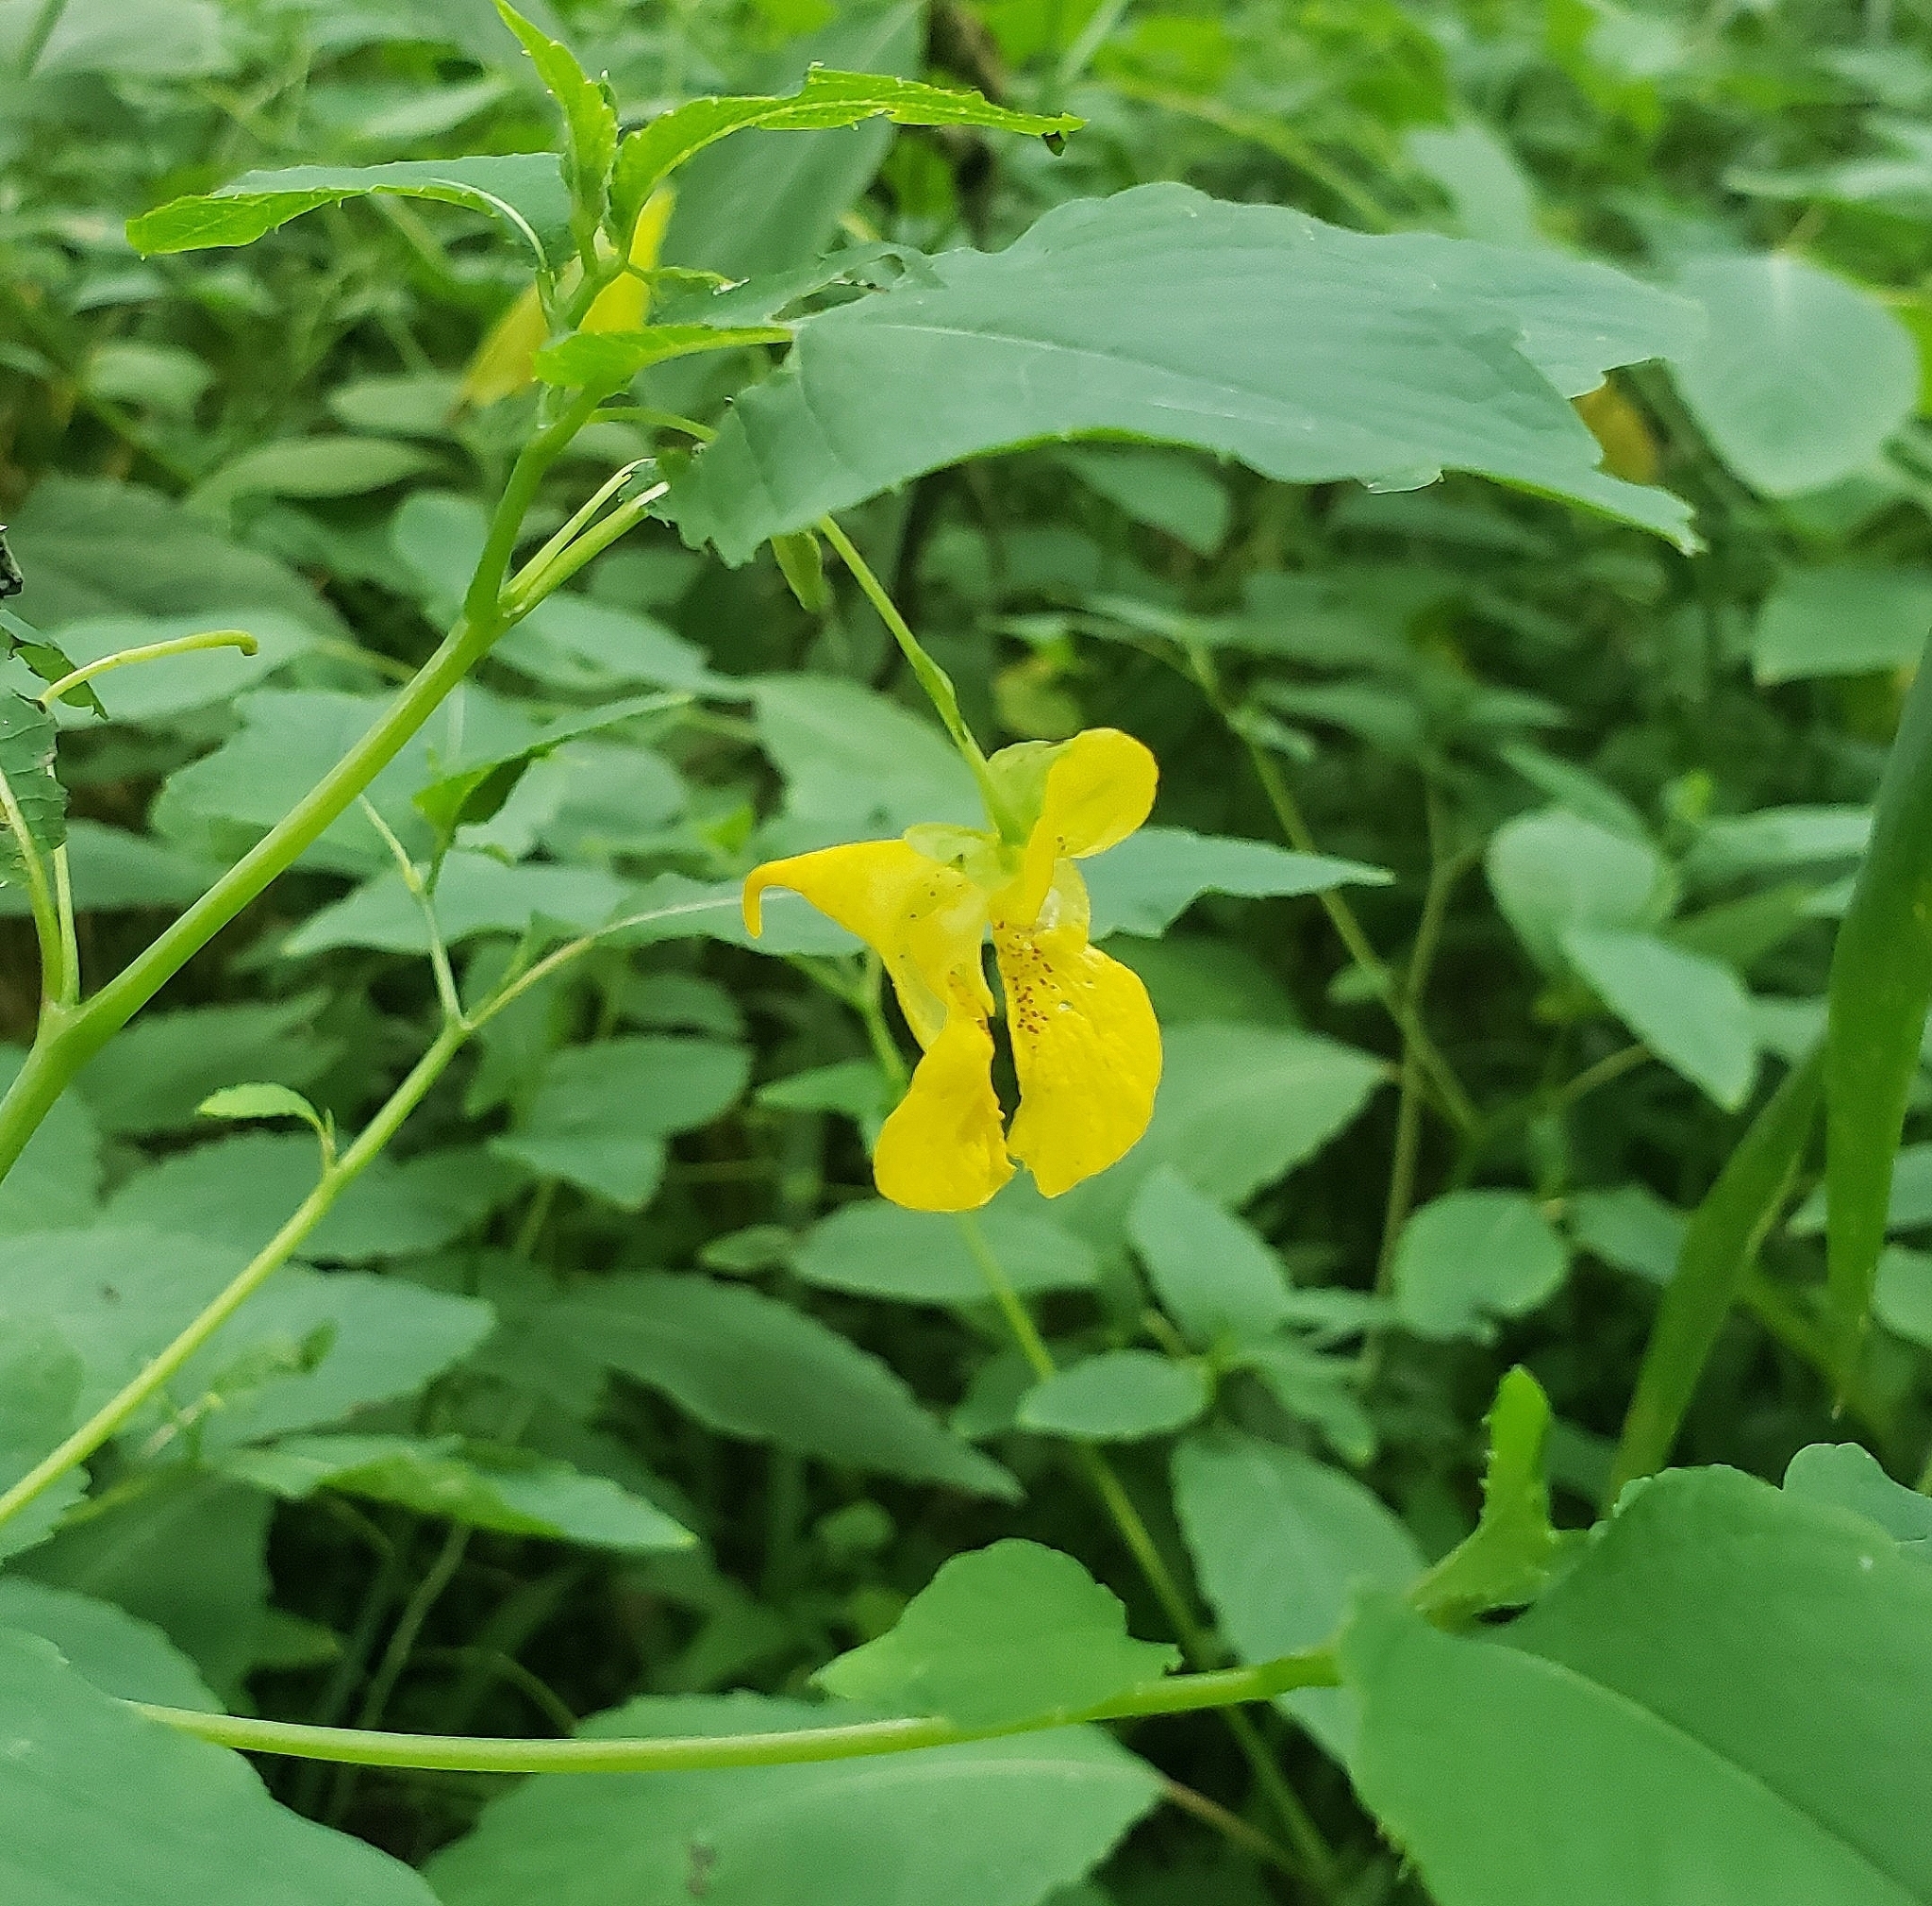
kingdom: Plantae
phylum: Tracheophyta
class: Magnoliopsida
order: Ericales
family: Balsaminaceae
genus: Impatiens
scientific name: Impatiens pallida
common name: Pale snapweed
